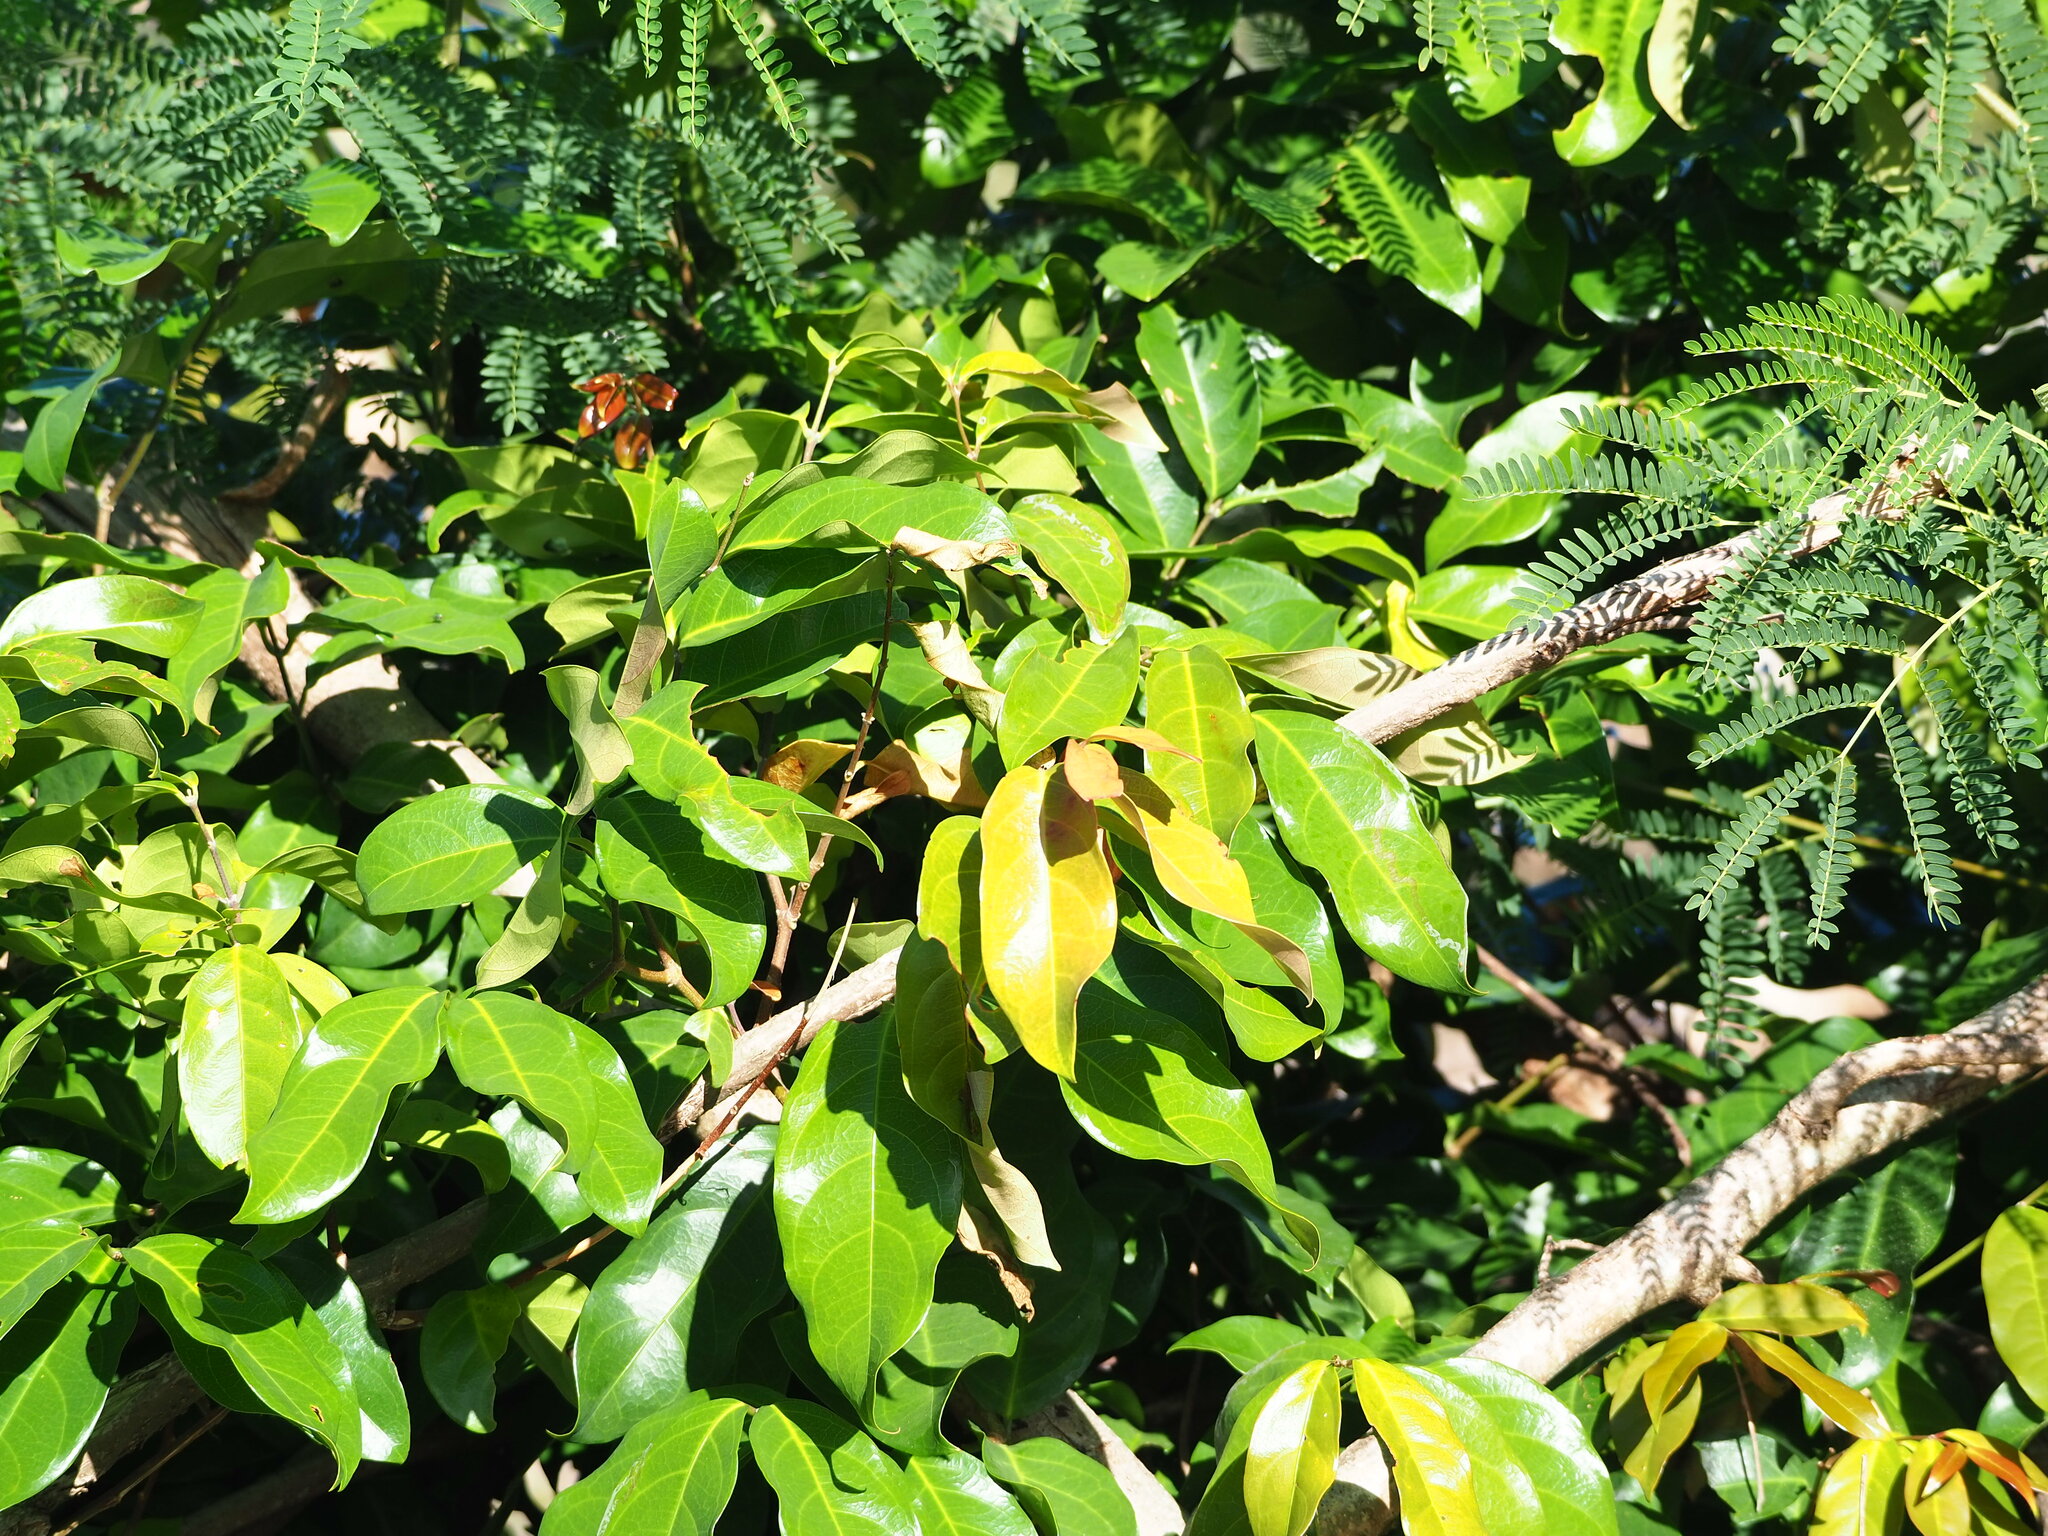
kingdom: Plantae
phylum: Tracheophyta
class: Magnoliopsida
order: Malpighiales
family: Malpighiaceae
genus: Hiptage
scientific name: Hiptage benghalensis
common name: Hiptage
